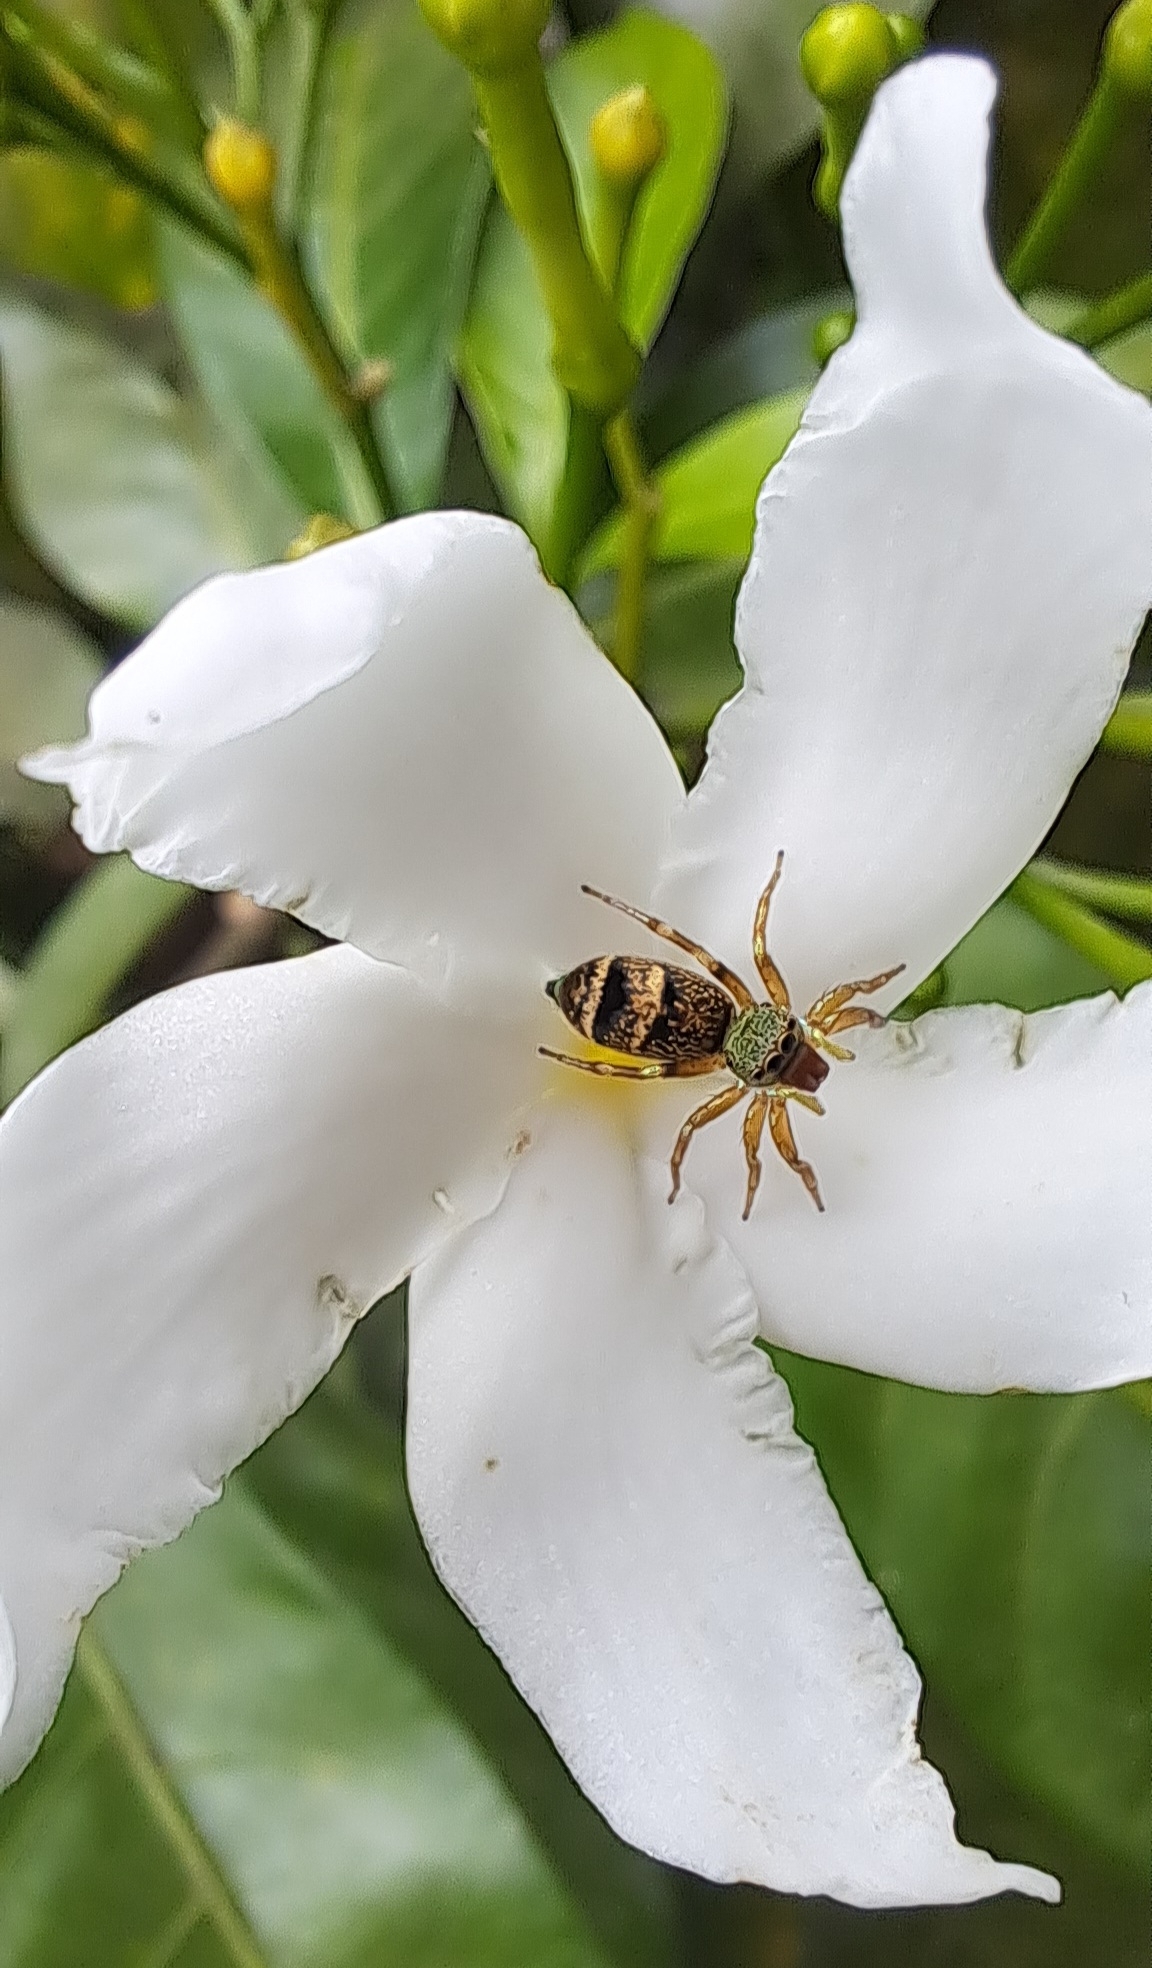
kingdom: Animalia
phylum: Arthropoda
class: Arachnida
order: Araneae
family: Salticidae
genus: Cosmophasis
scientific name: Cosmophasis thalassina
